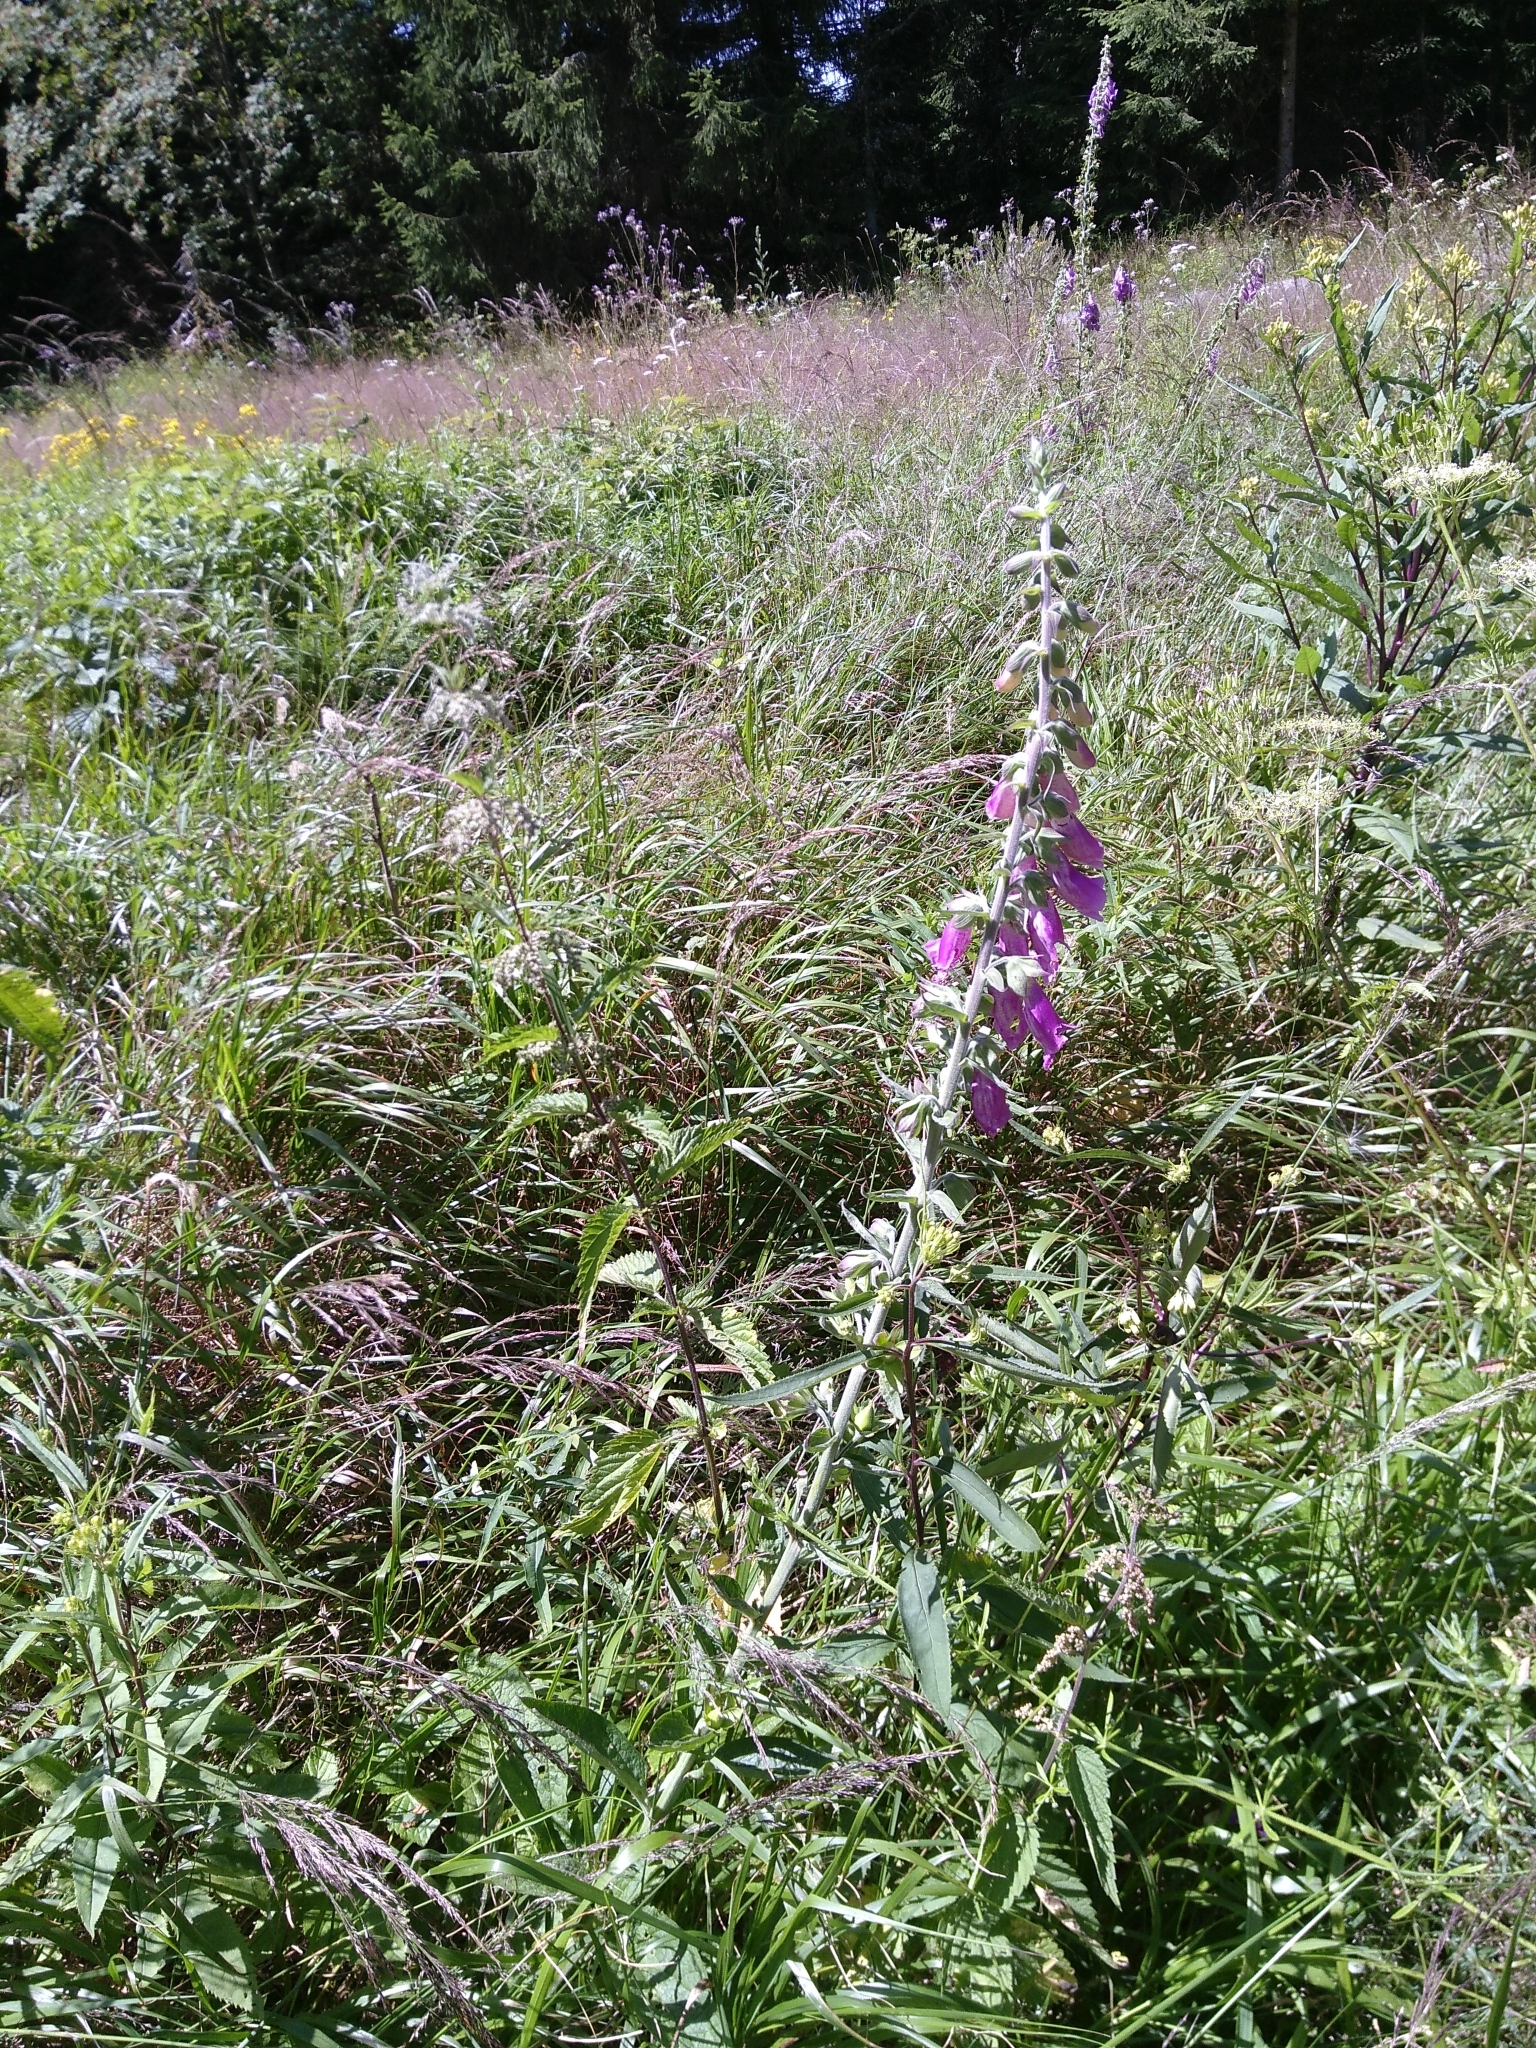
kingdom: Plantae
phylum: Tracheophyta
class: Magnoliopsida
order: Lamiales
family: Plantaginaceae
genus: Digitalis
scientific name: Digitalis purpurea
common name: Foxglove
